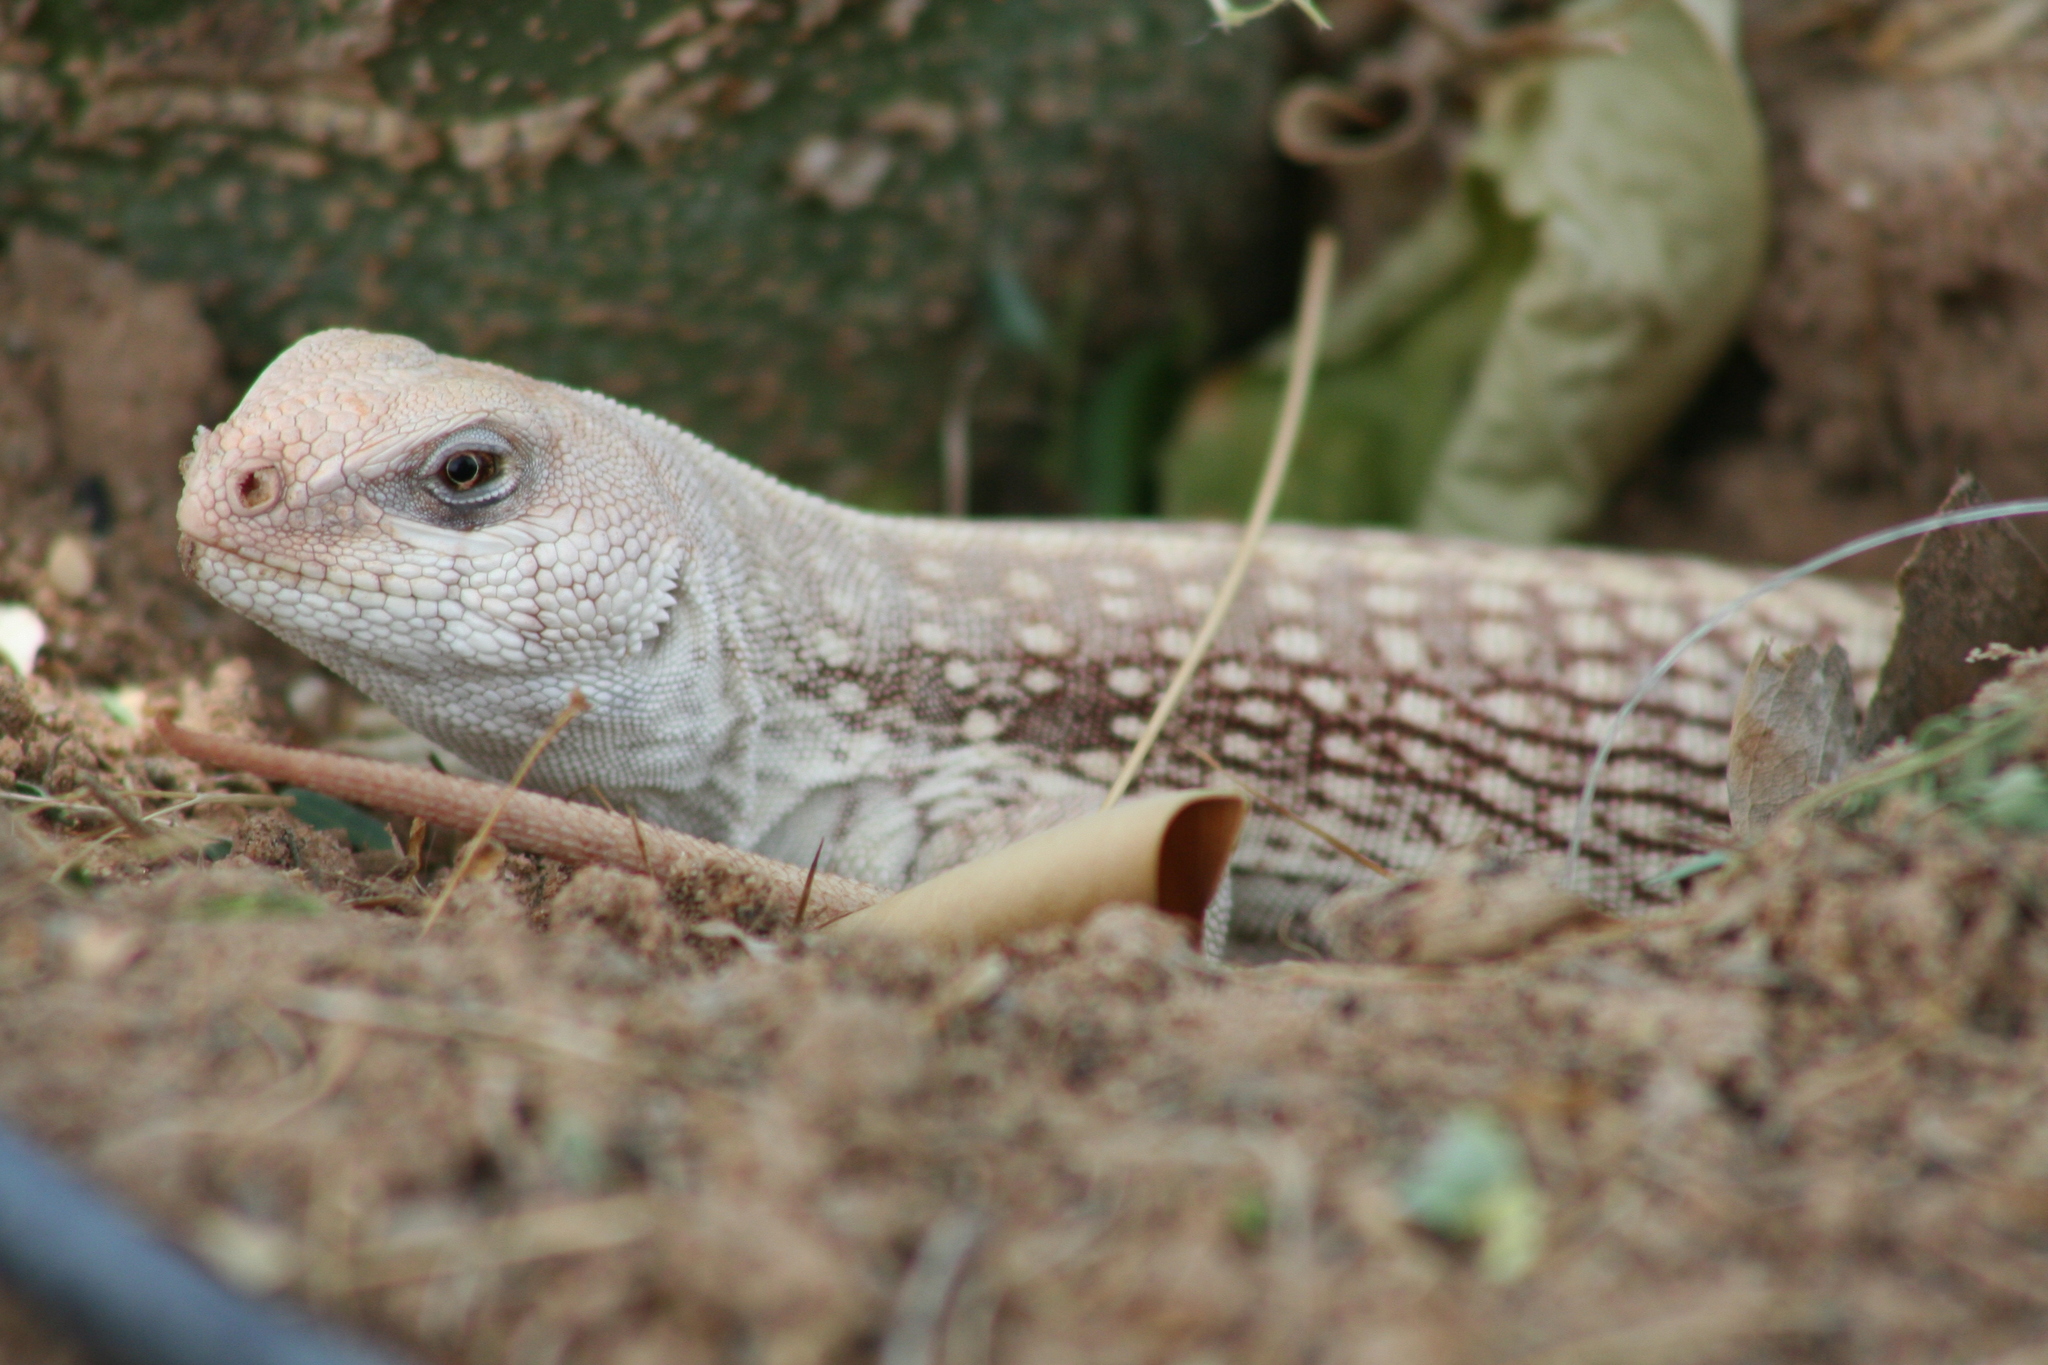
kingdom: Animalia
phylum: Chordata
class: Squamata
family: Iguanidae
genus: Dipsosaurus
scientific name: Dipsosaurus dorsalis
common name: Desert iguana
